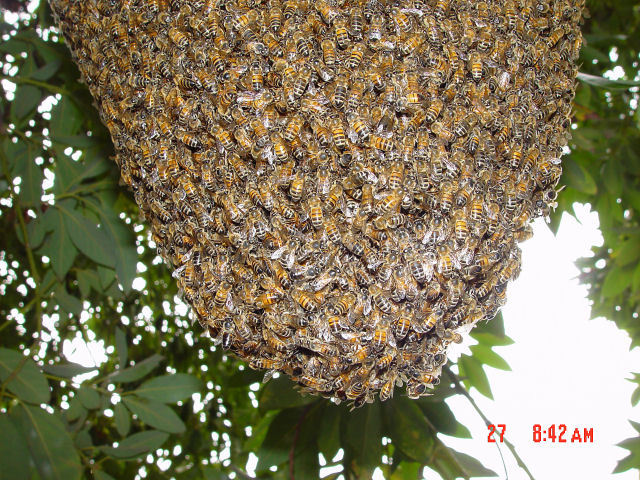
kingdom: Animalia
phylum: Arthropoda
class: Insecta
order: Hymenoptera
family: Apidae
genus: Apis
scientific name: Apis mellifera
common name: Honey bee
